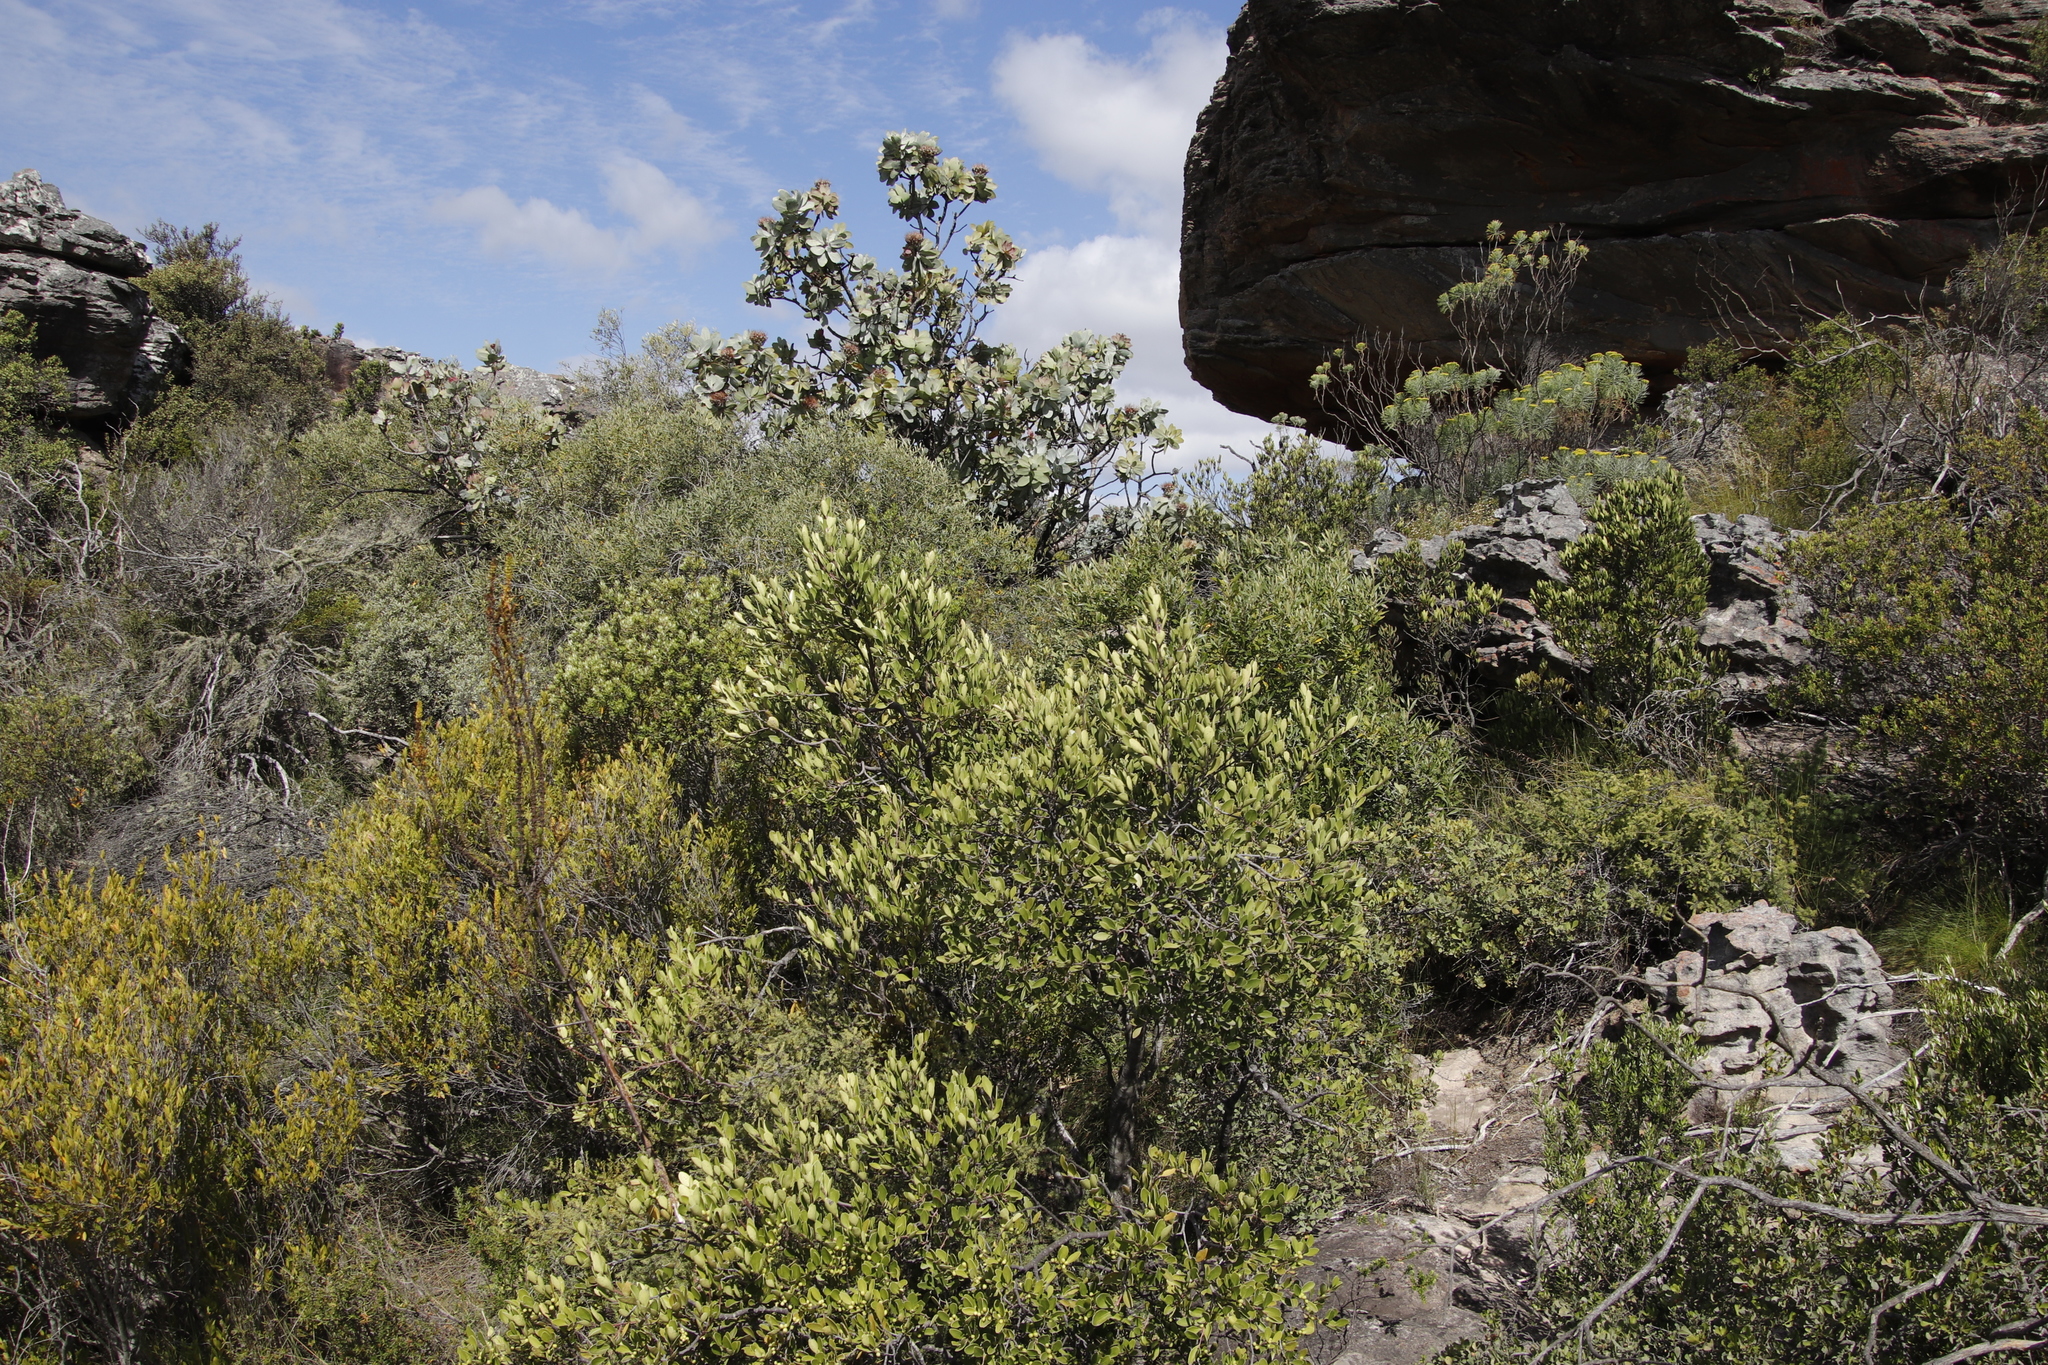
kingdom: Plantae
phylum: Tracheophyta
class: Magnoliopsida
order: Celastrales
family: Celastraceae
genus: Gymnosporia
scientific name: Gymnosporia laurina
